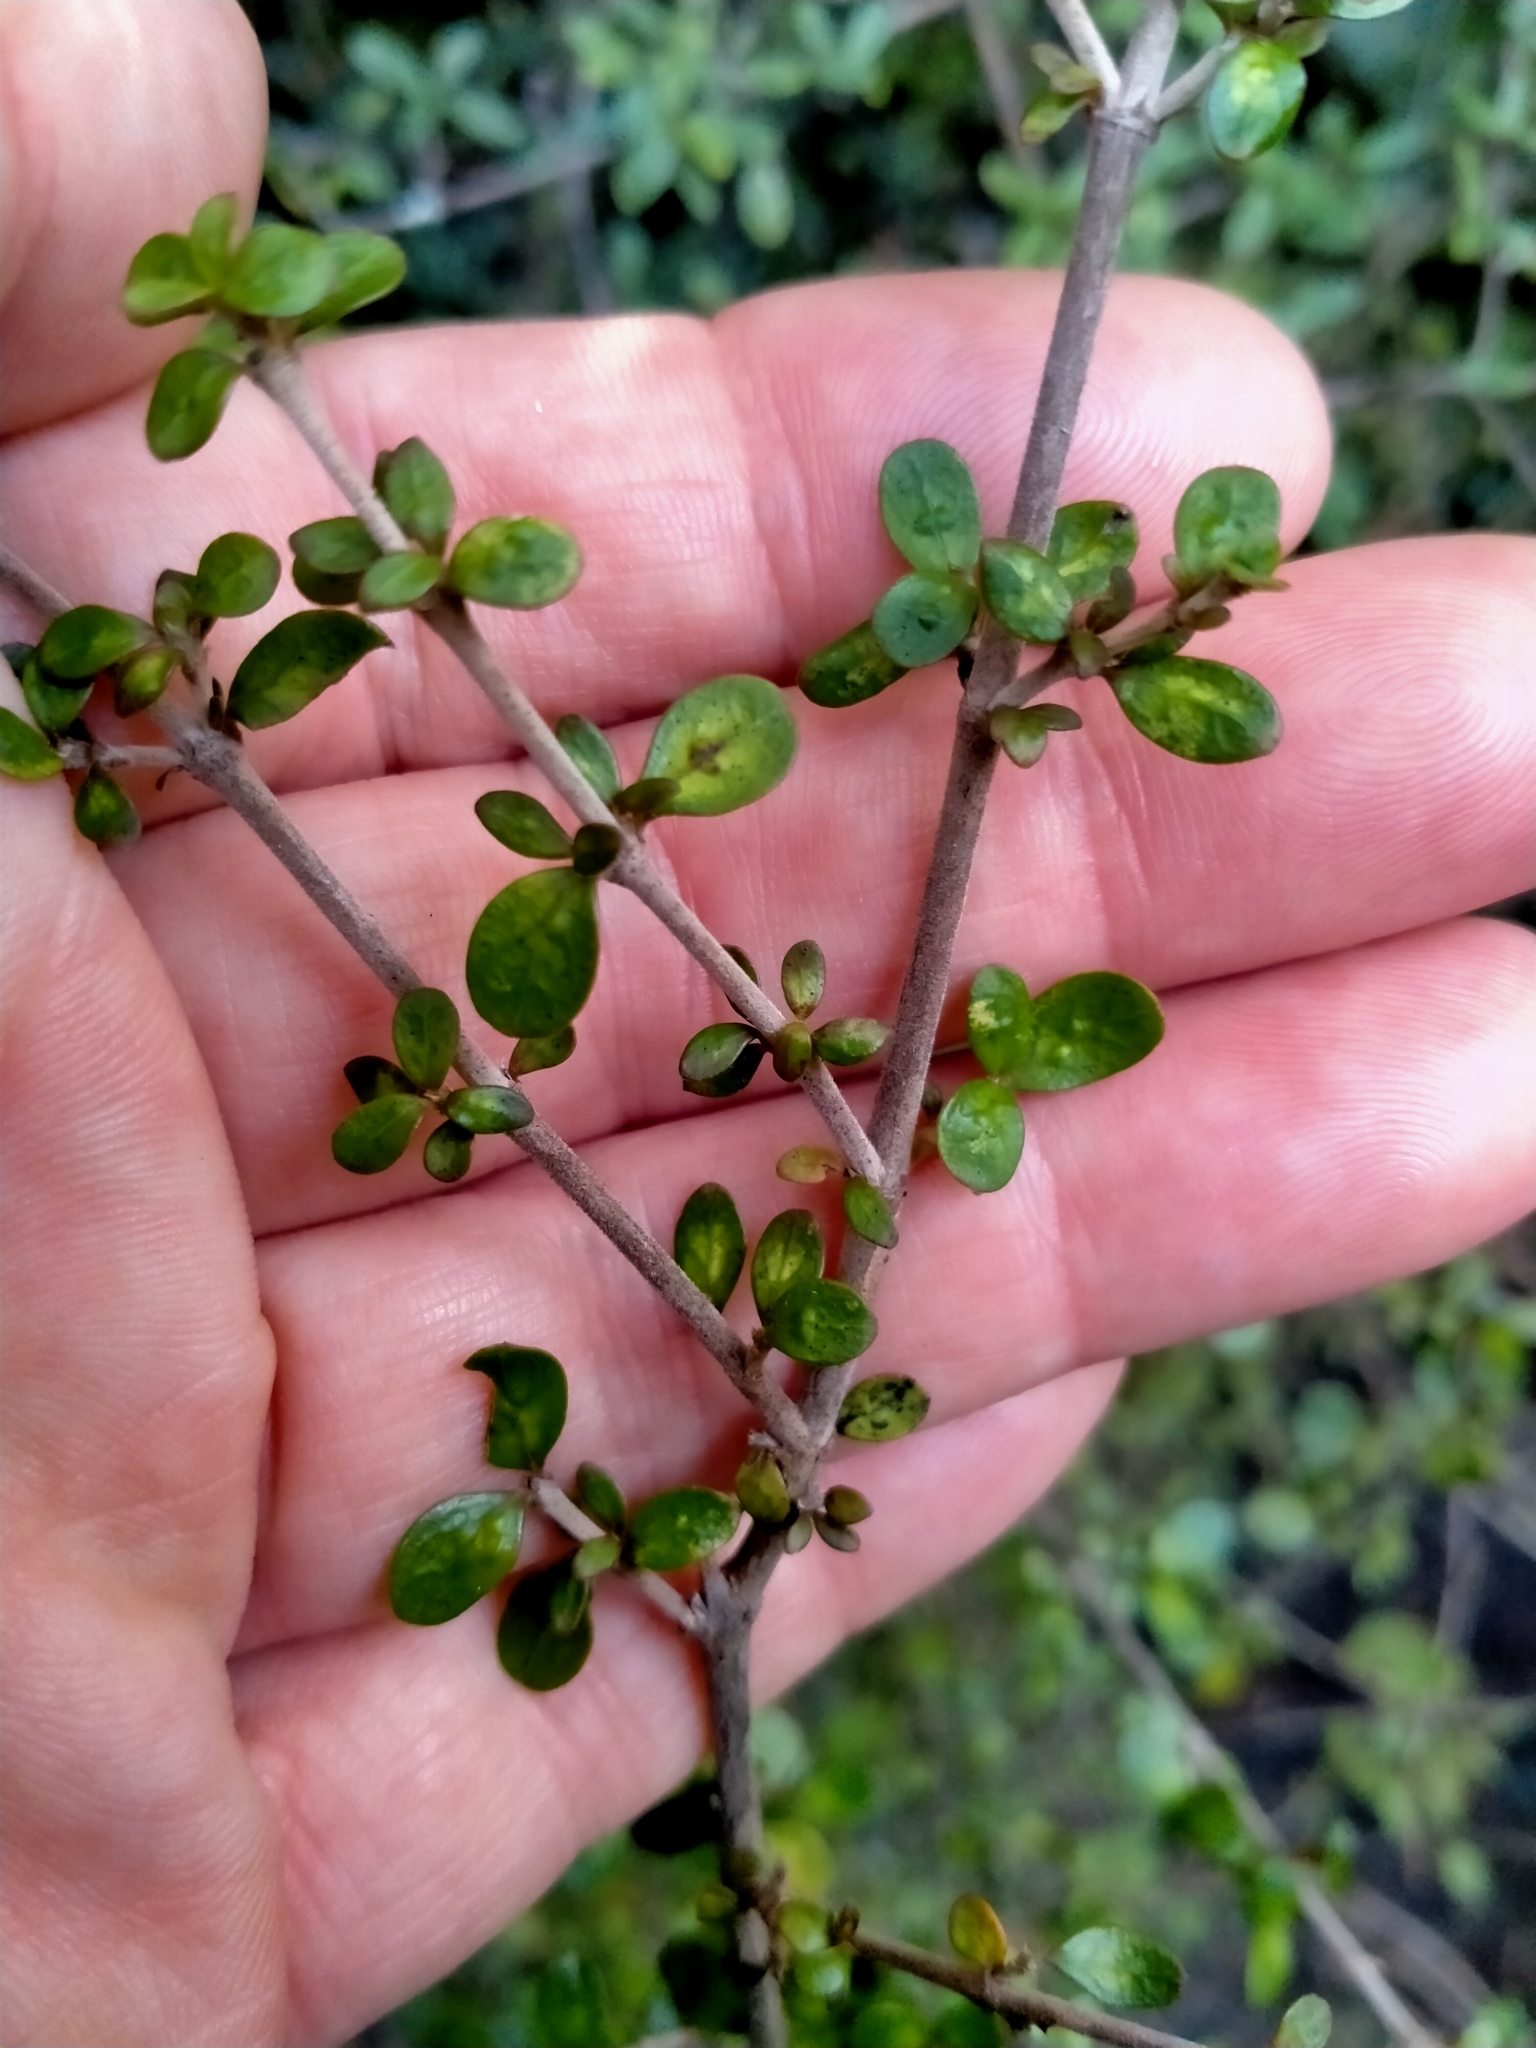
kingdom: Plantae
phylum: Tracheophyta
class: Magnoliopsida
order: Gentianales
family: Rubiaceae
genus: Coprosma
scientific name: Coprosma dumosa
